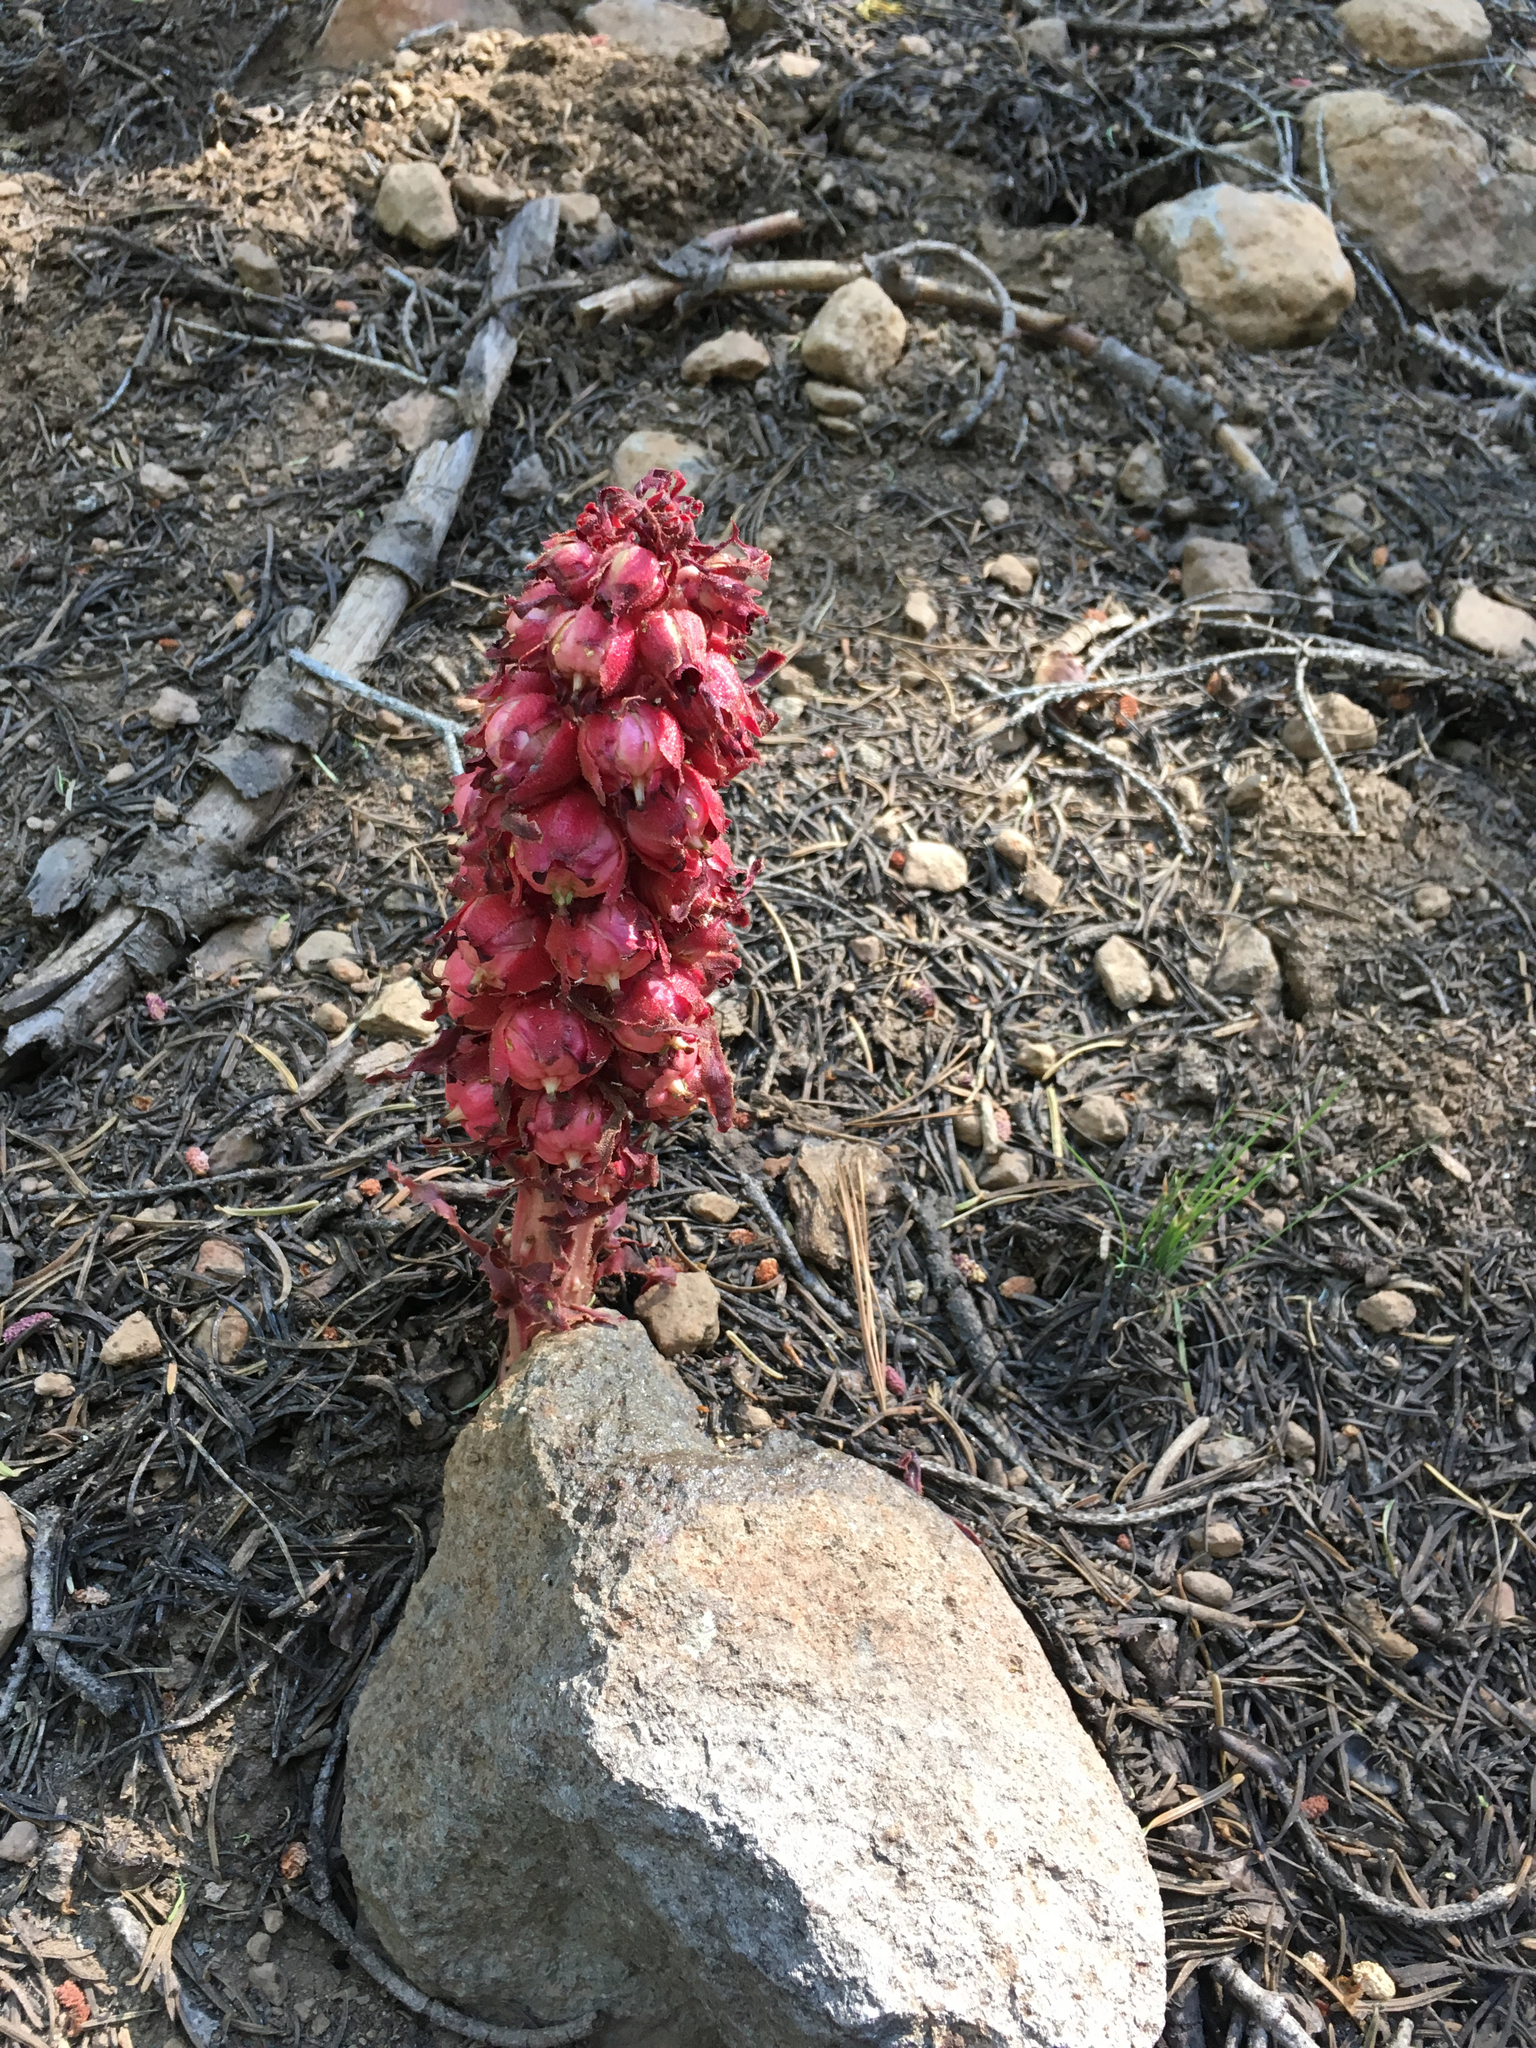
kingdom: Plantae
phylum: Tracheophyta
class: Magnoliopsida
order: Ericales
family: Ericaceae
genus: Sarcodes
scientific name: Sarcodes sanguinea
